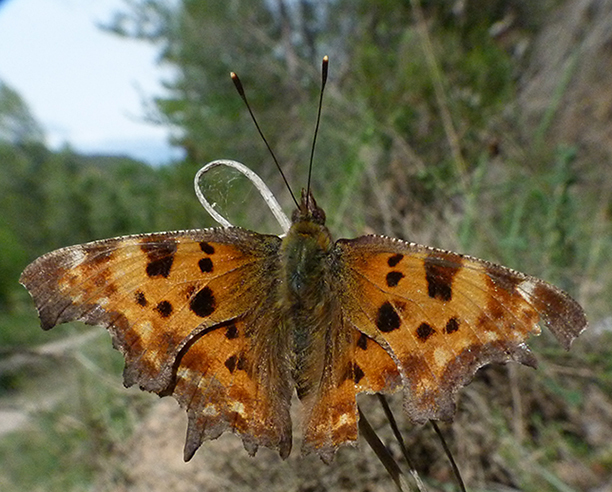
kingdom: Animalia
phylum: Arthropoda
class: Insecta
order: Lepidoptera
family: Nymphalidae
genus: Polygonia
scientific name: Polygonia c-album
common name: Comma
